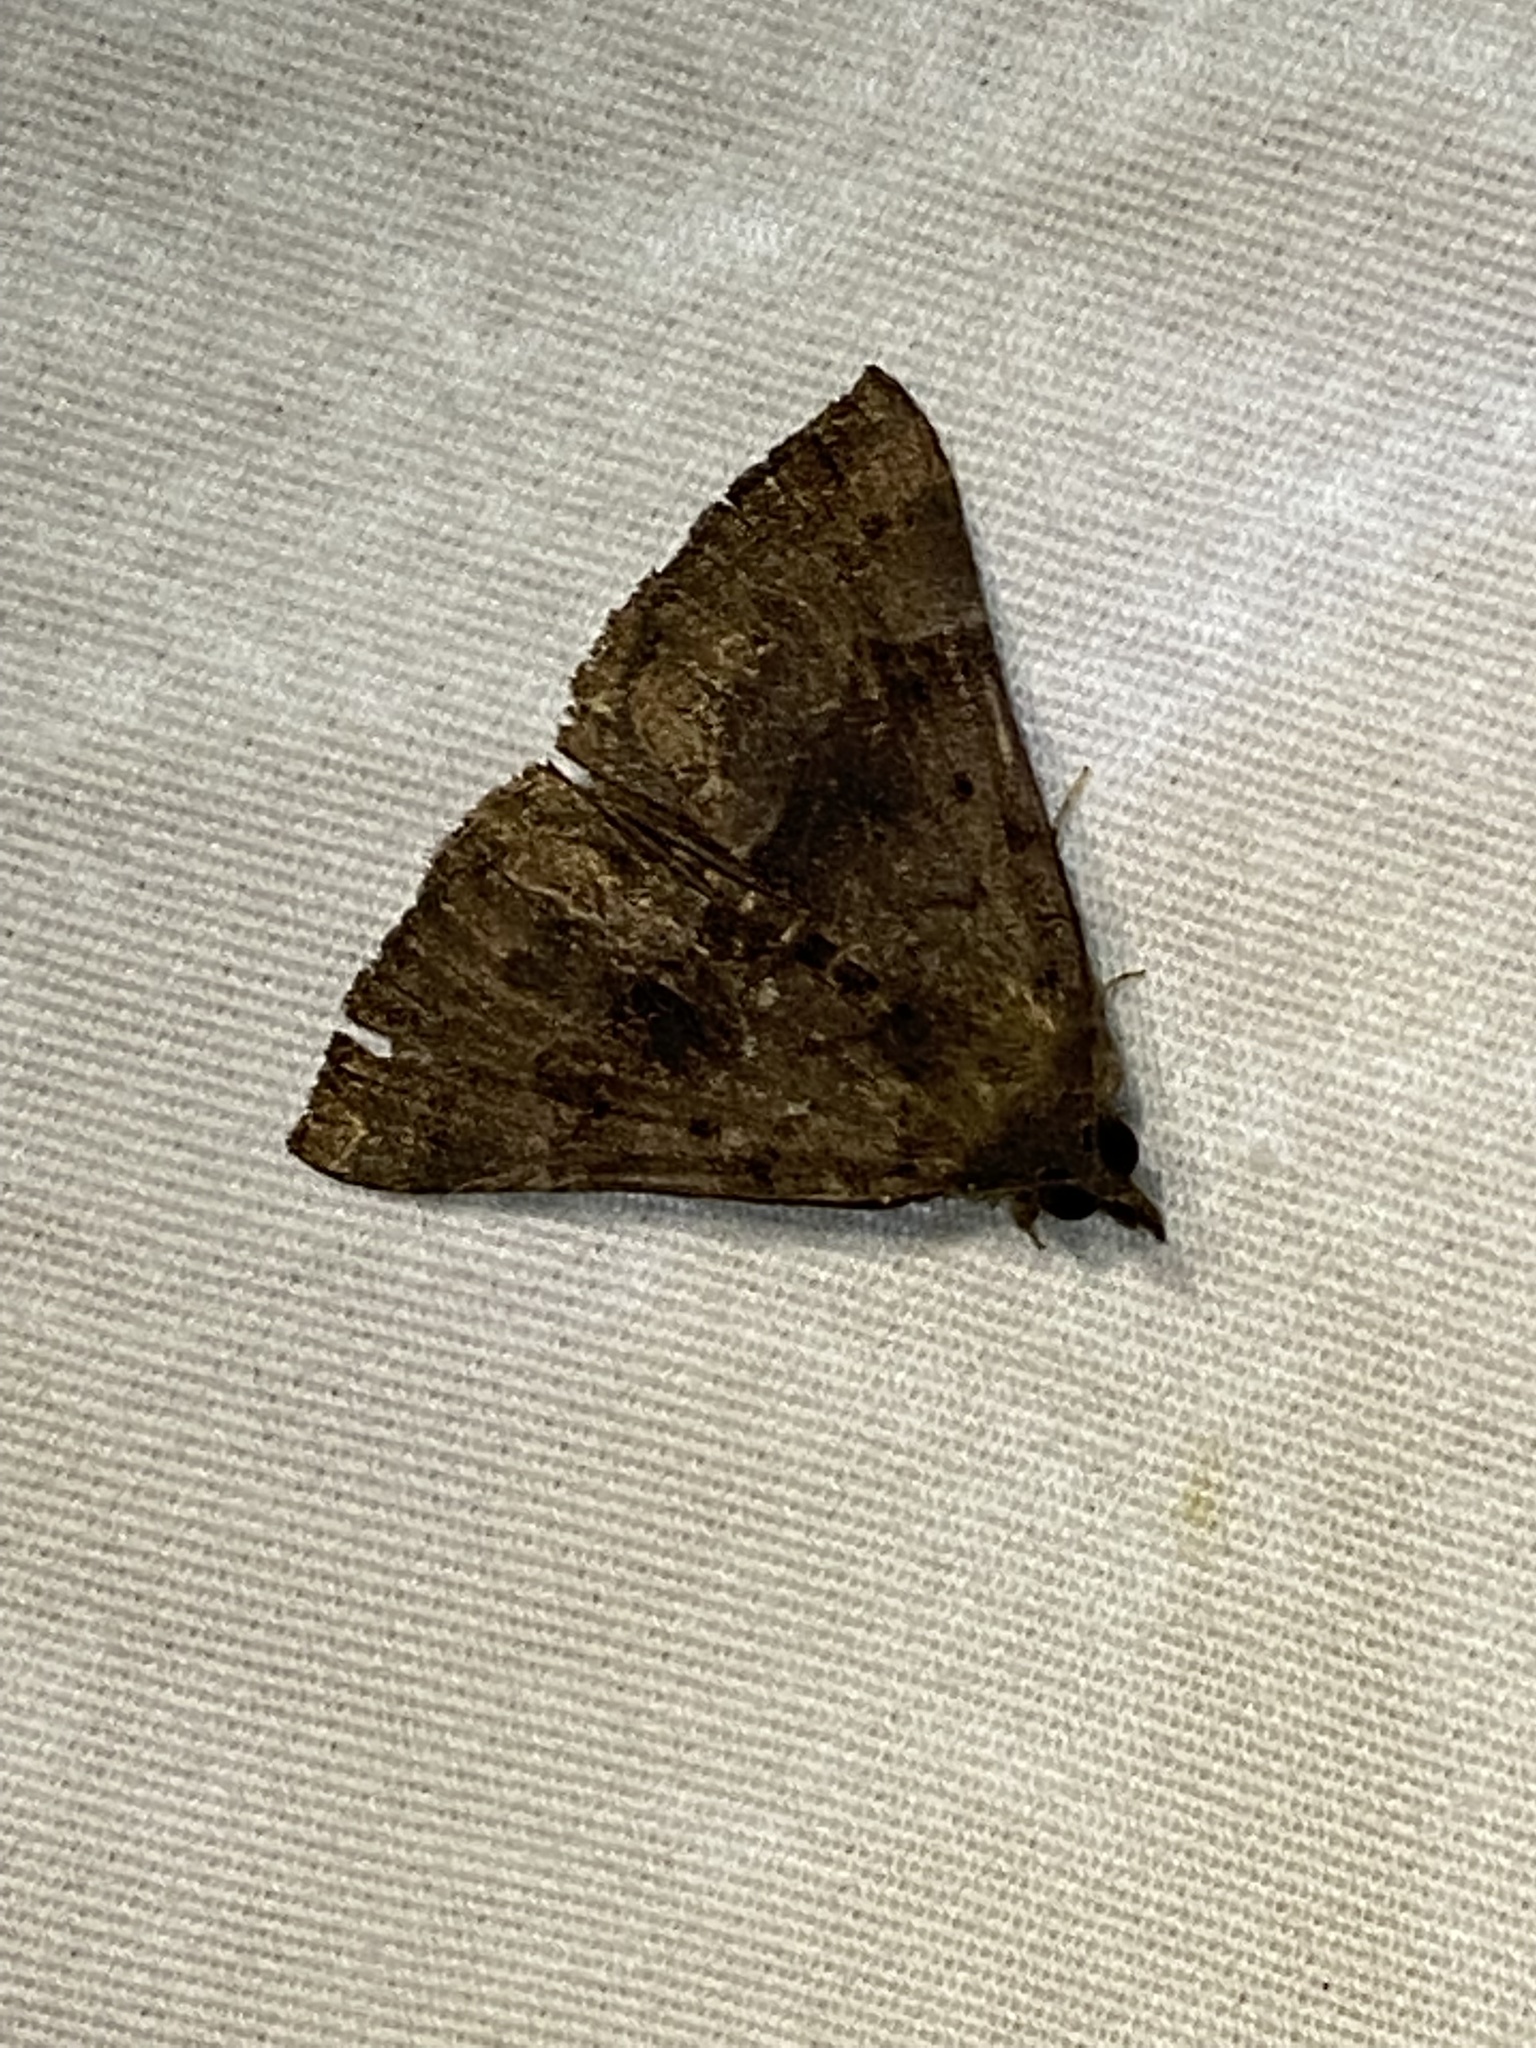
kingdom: Animalia
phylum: Arthropoda
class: Insecta
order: Lepidoptera
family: Erebidae
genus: Hypena
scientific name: Hypena madefactalis
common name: Gray-edged snout
